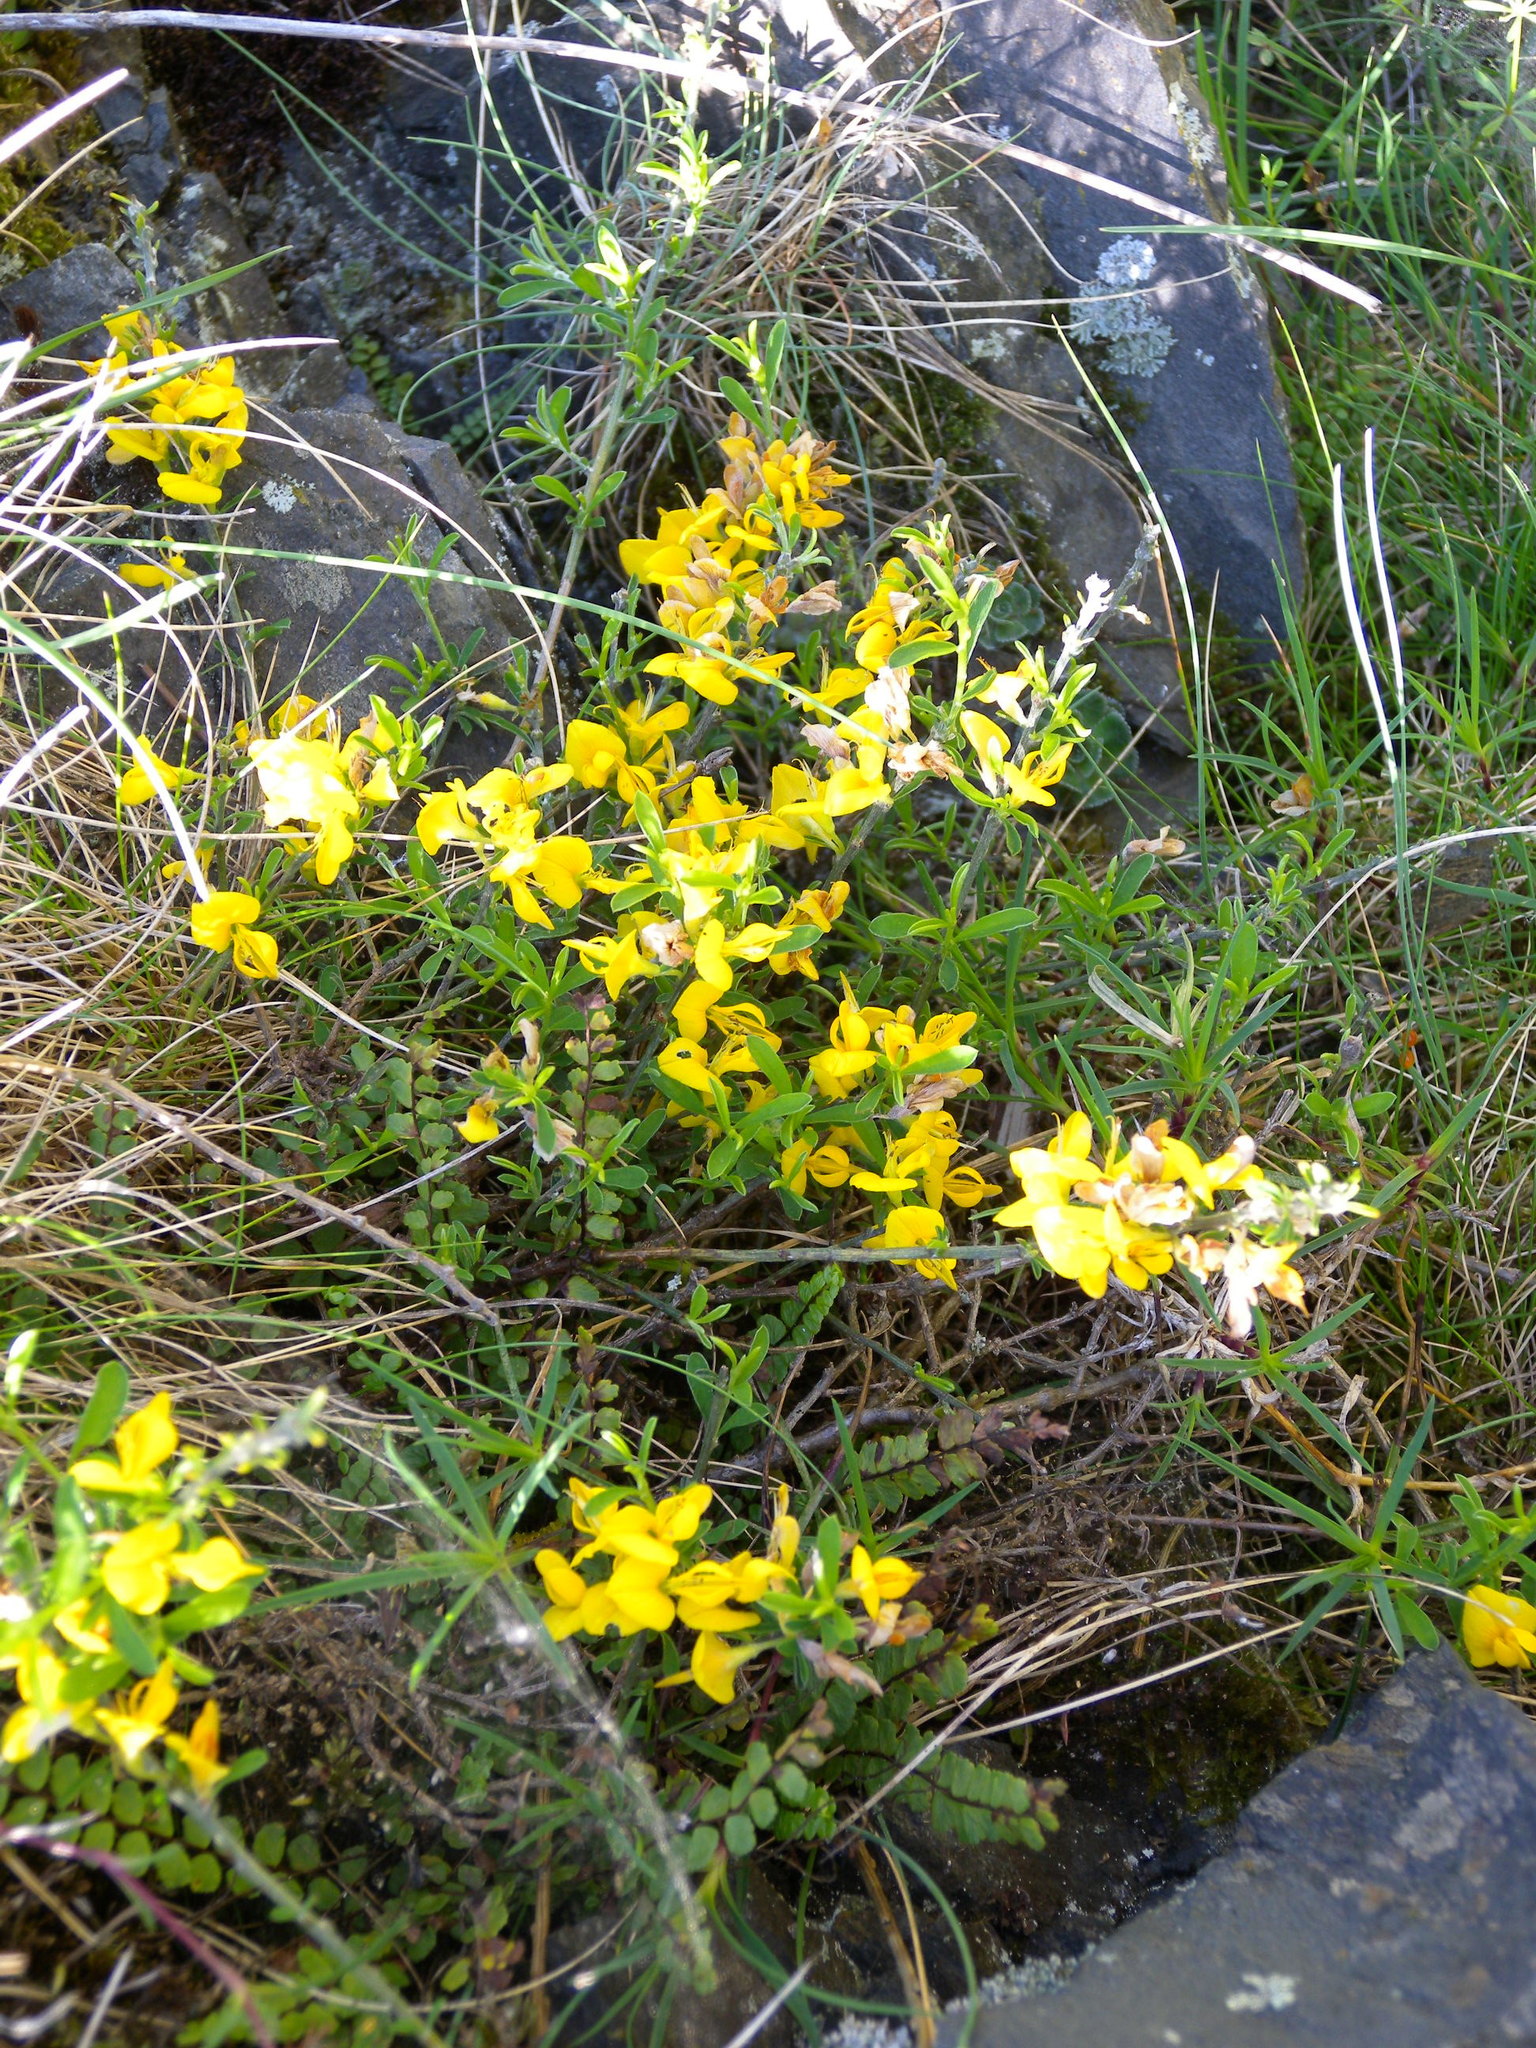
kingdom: Plantae
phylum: Tracheophyta
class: Magnoliopsida
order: Fabales
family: Fabaceae
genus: Genista
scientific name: Genista pilosa
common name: Hairy greenweed
